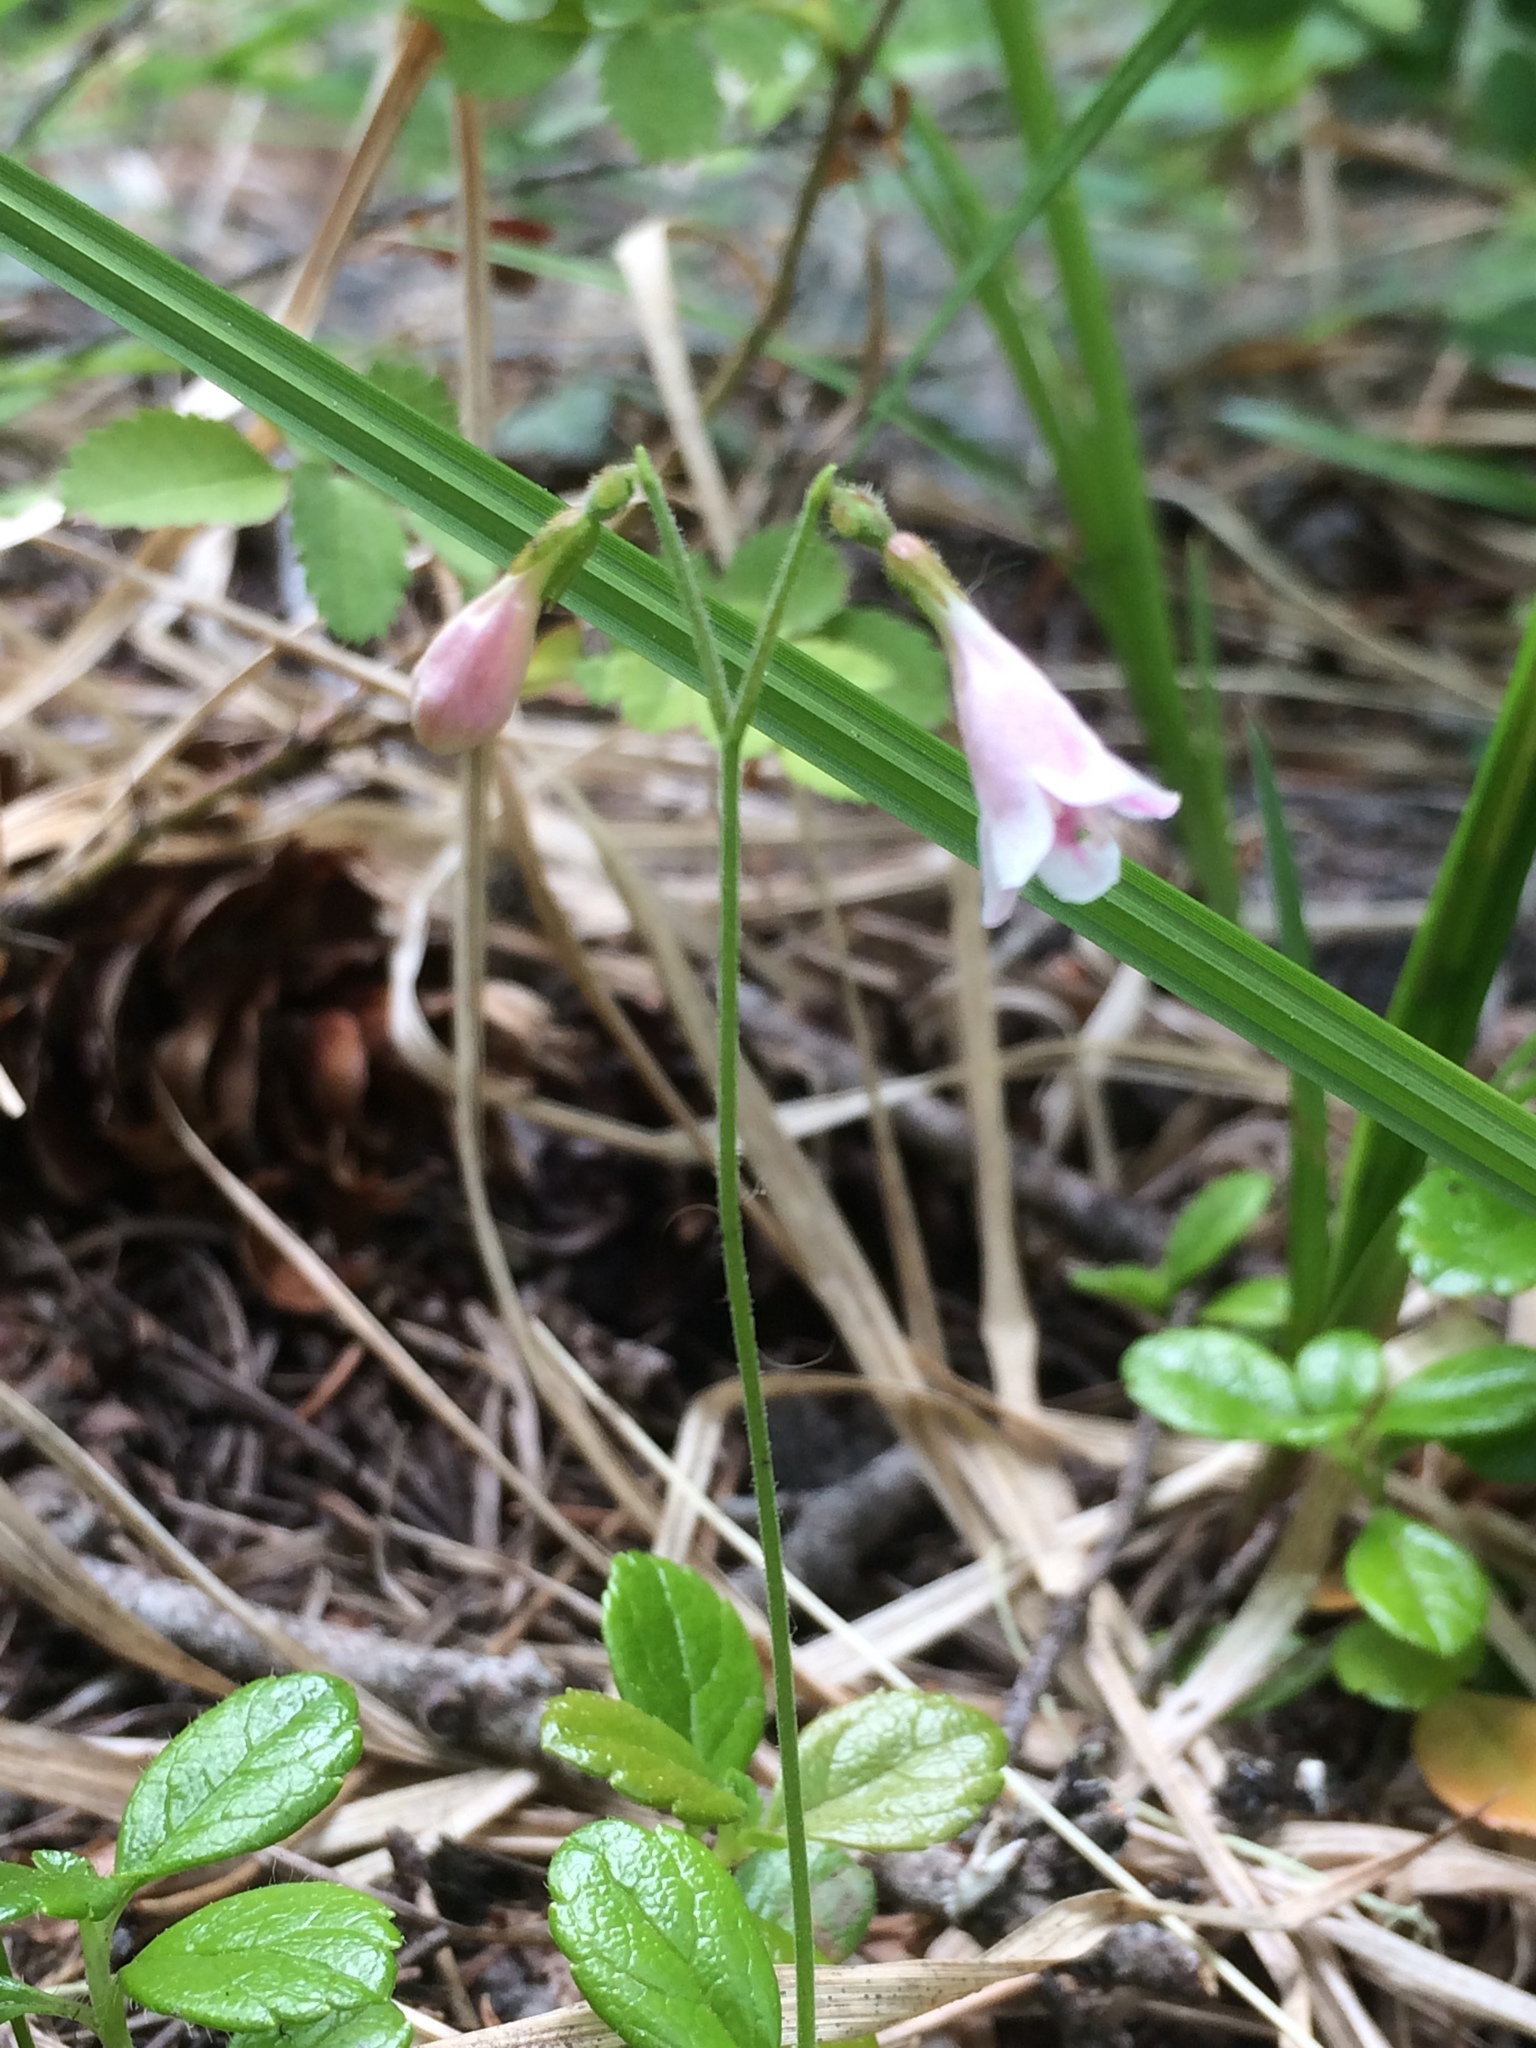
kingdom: Plantae
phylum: Tracheophyta
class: Magnoliopsida
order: Dipsacales
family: Caprifoliaceae
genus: Linnaea
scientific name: Linnaea borealis
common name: Twinflower
